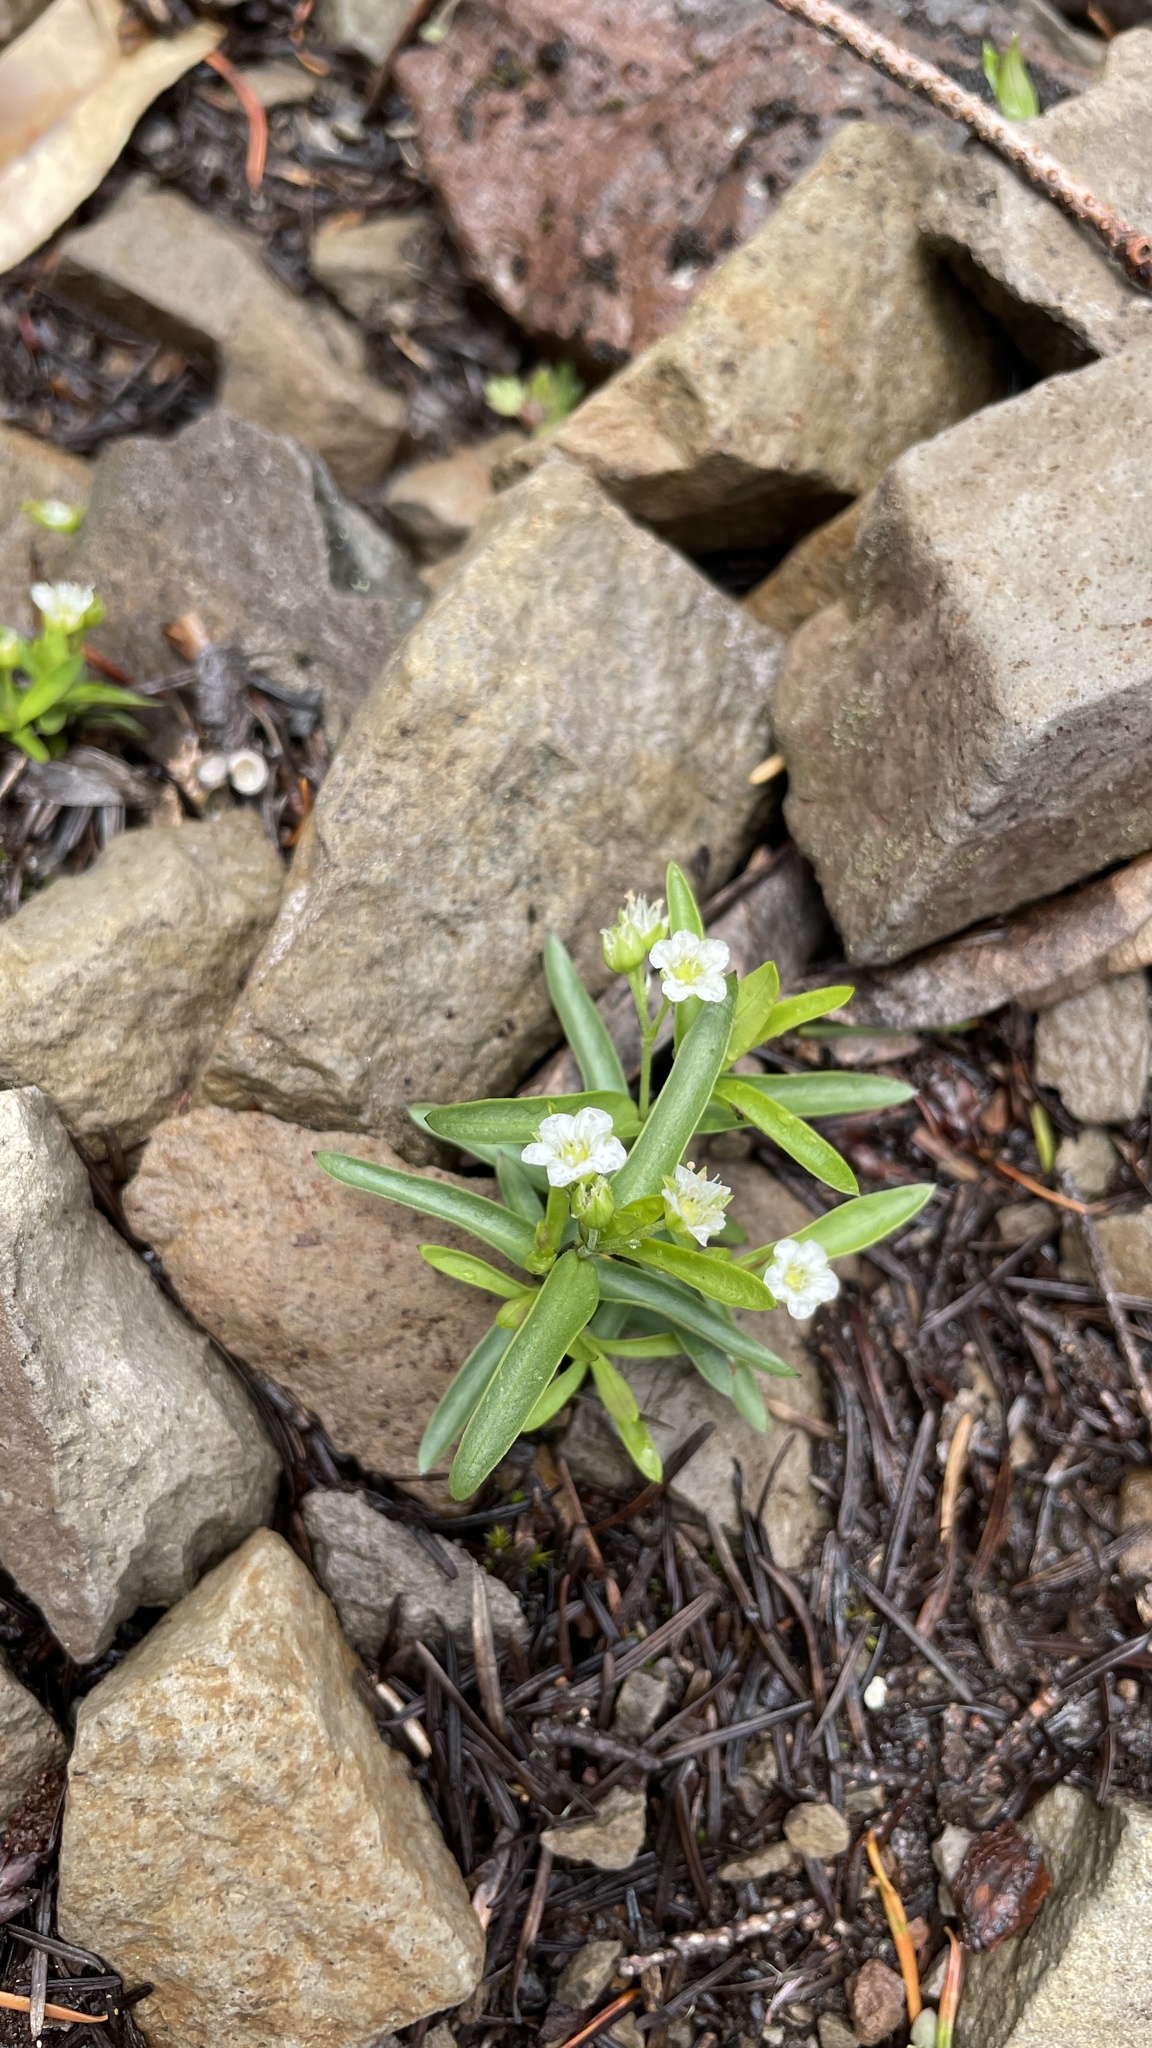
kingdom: Plantae
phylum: Tracheophyta
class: Magnoliopsida
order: Caryophyllales
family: Caryophyllaceae
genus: Moehringia
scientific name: Moehringia macrophylla
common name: Big-leaf sandwort
